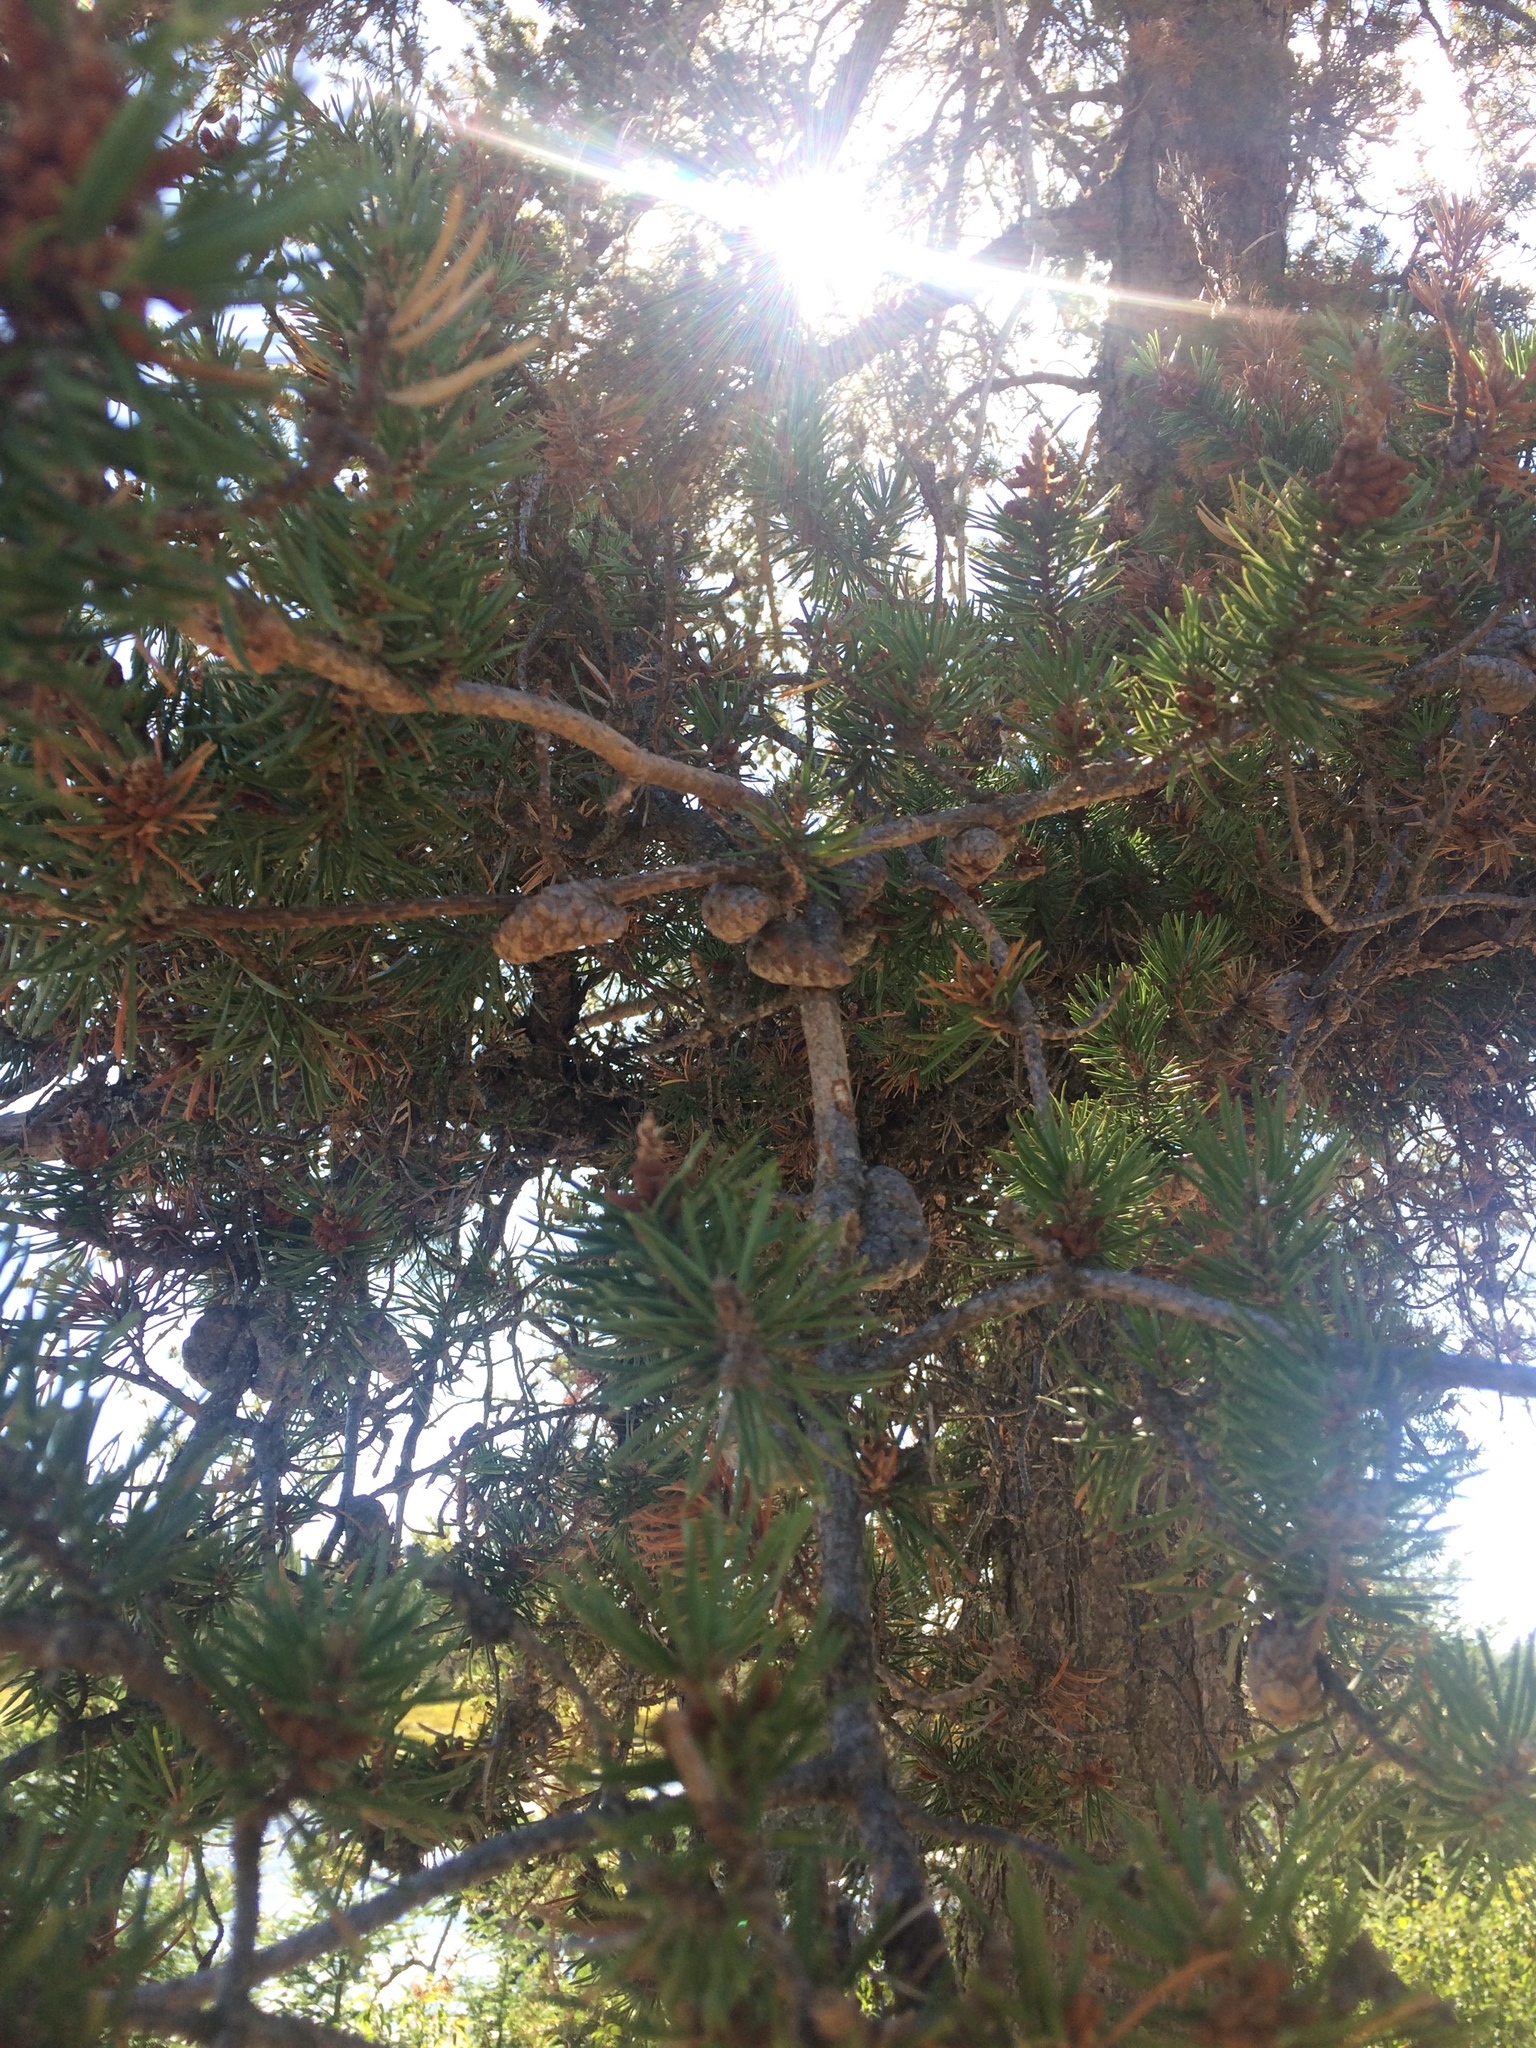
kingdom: Plantae
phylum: Tracheophyta
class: Pinopsida
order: Pinales
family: Pinaceae
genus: Pinus
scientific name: Pinus banksiana
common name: Jack pine
